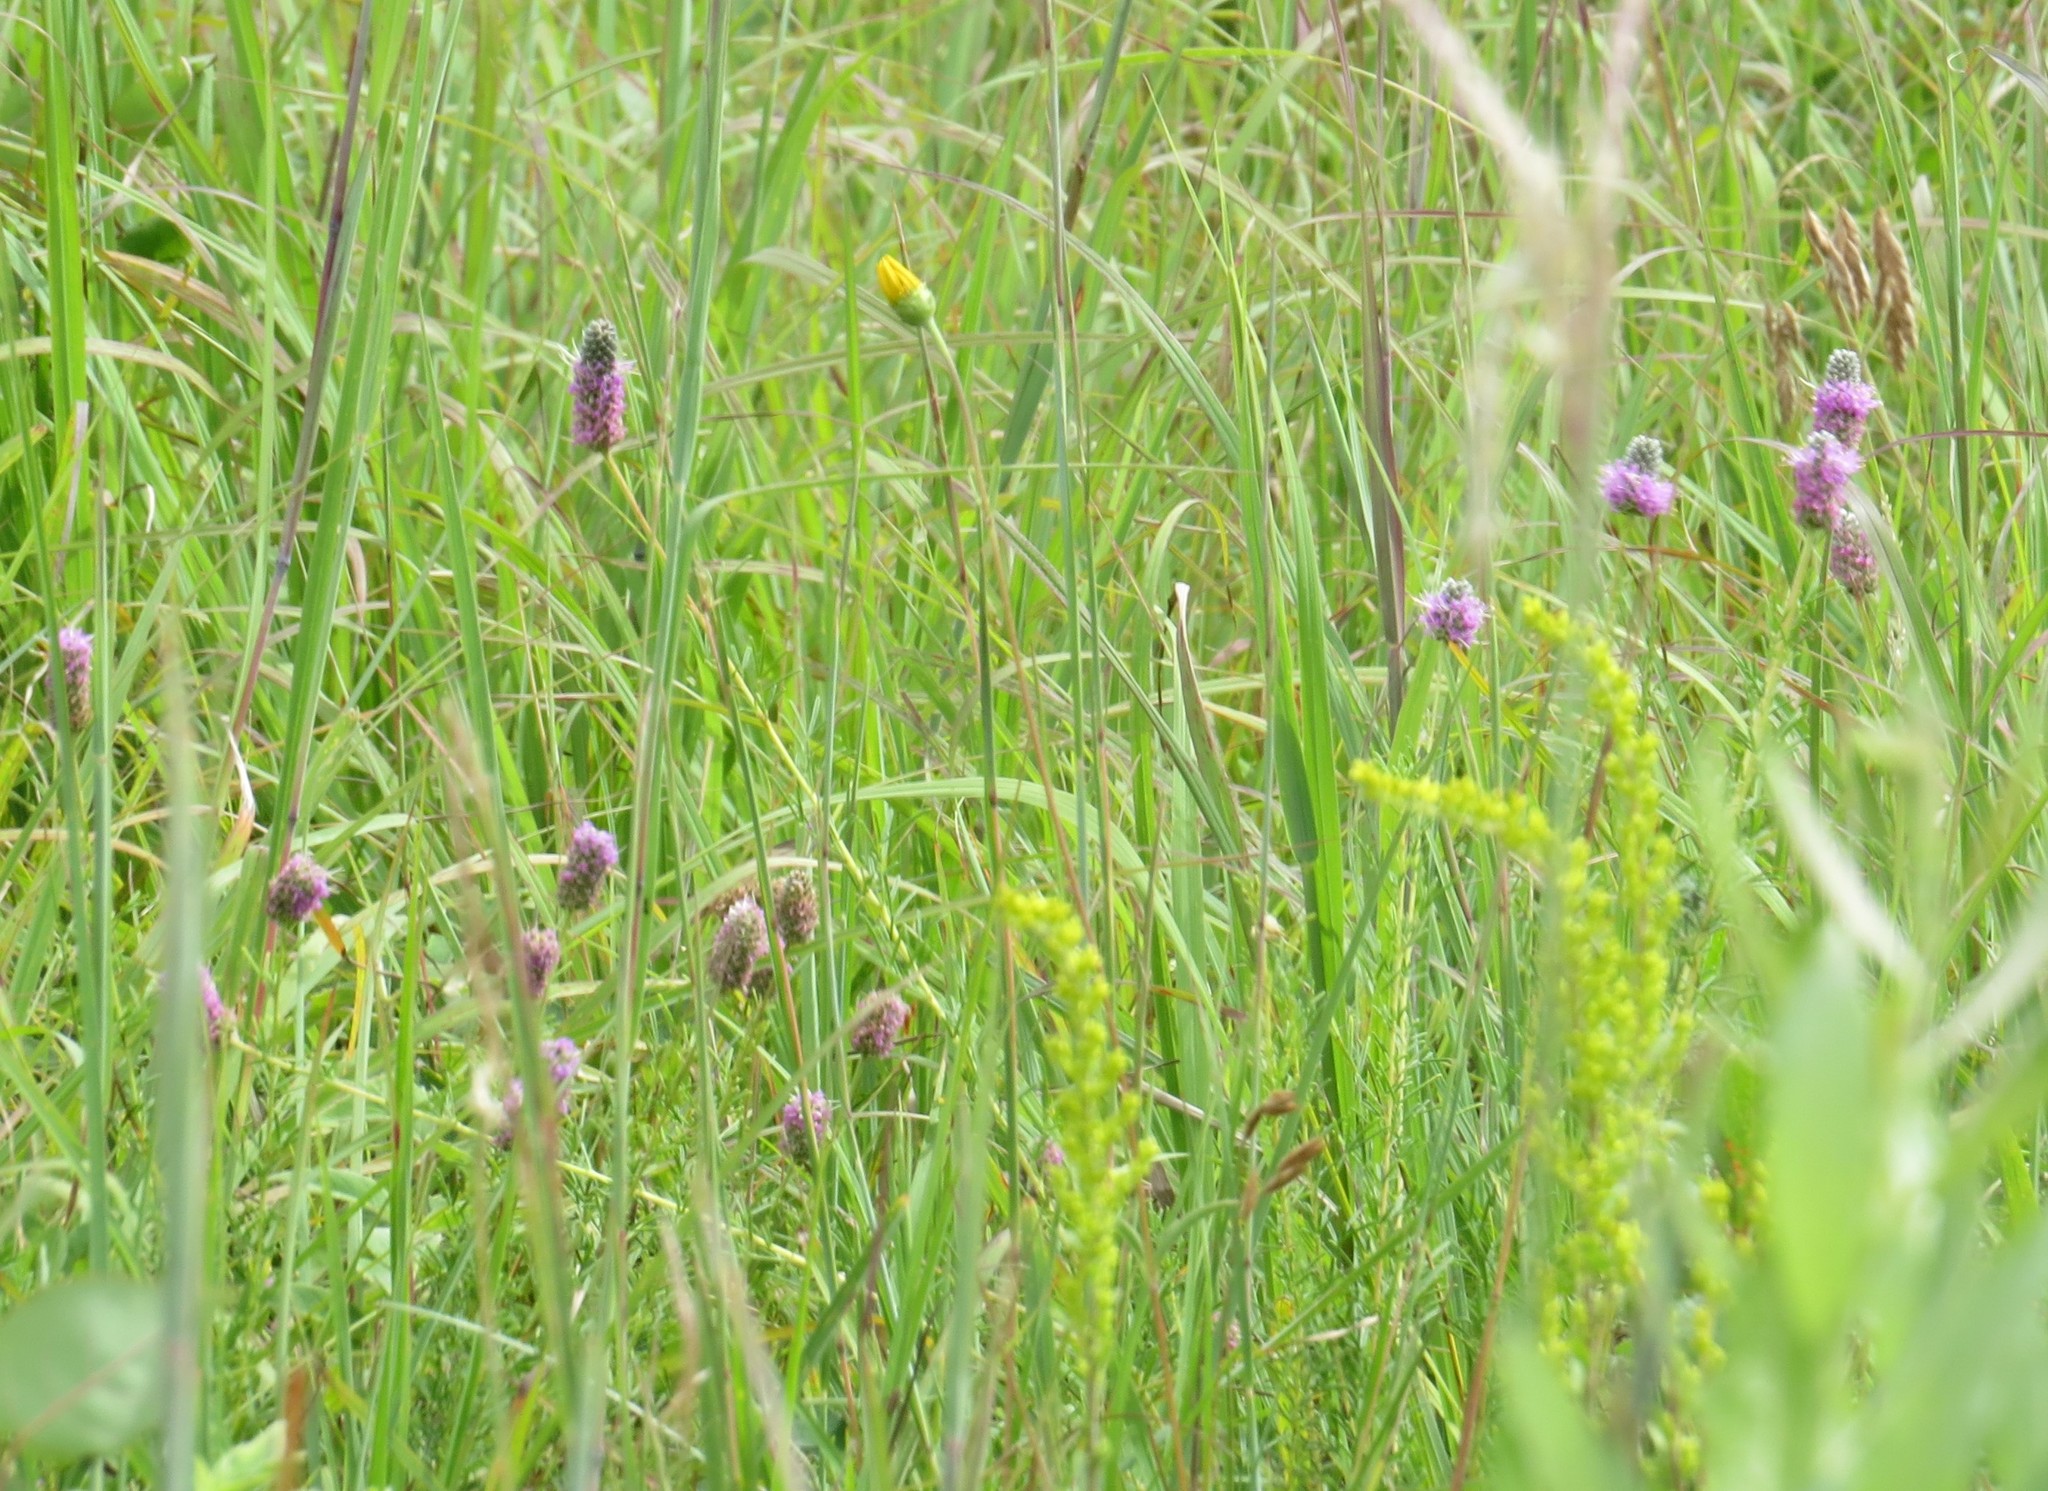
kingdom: Plantae
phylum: Tracheophyta
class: Magnoliopsida
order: Fabales
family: Fabaceae
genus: Dalea
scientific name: Dalea purpurea
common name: Purple prairie-clover
